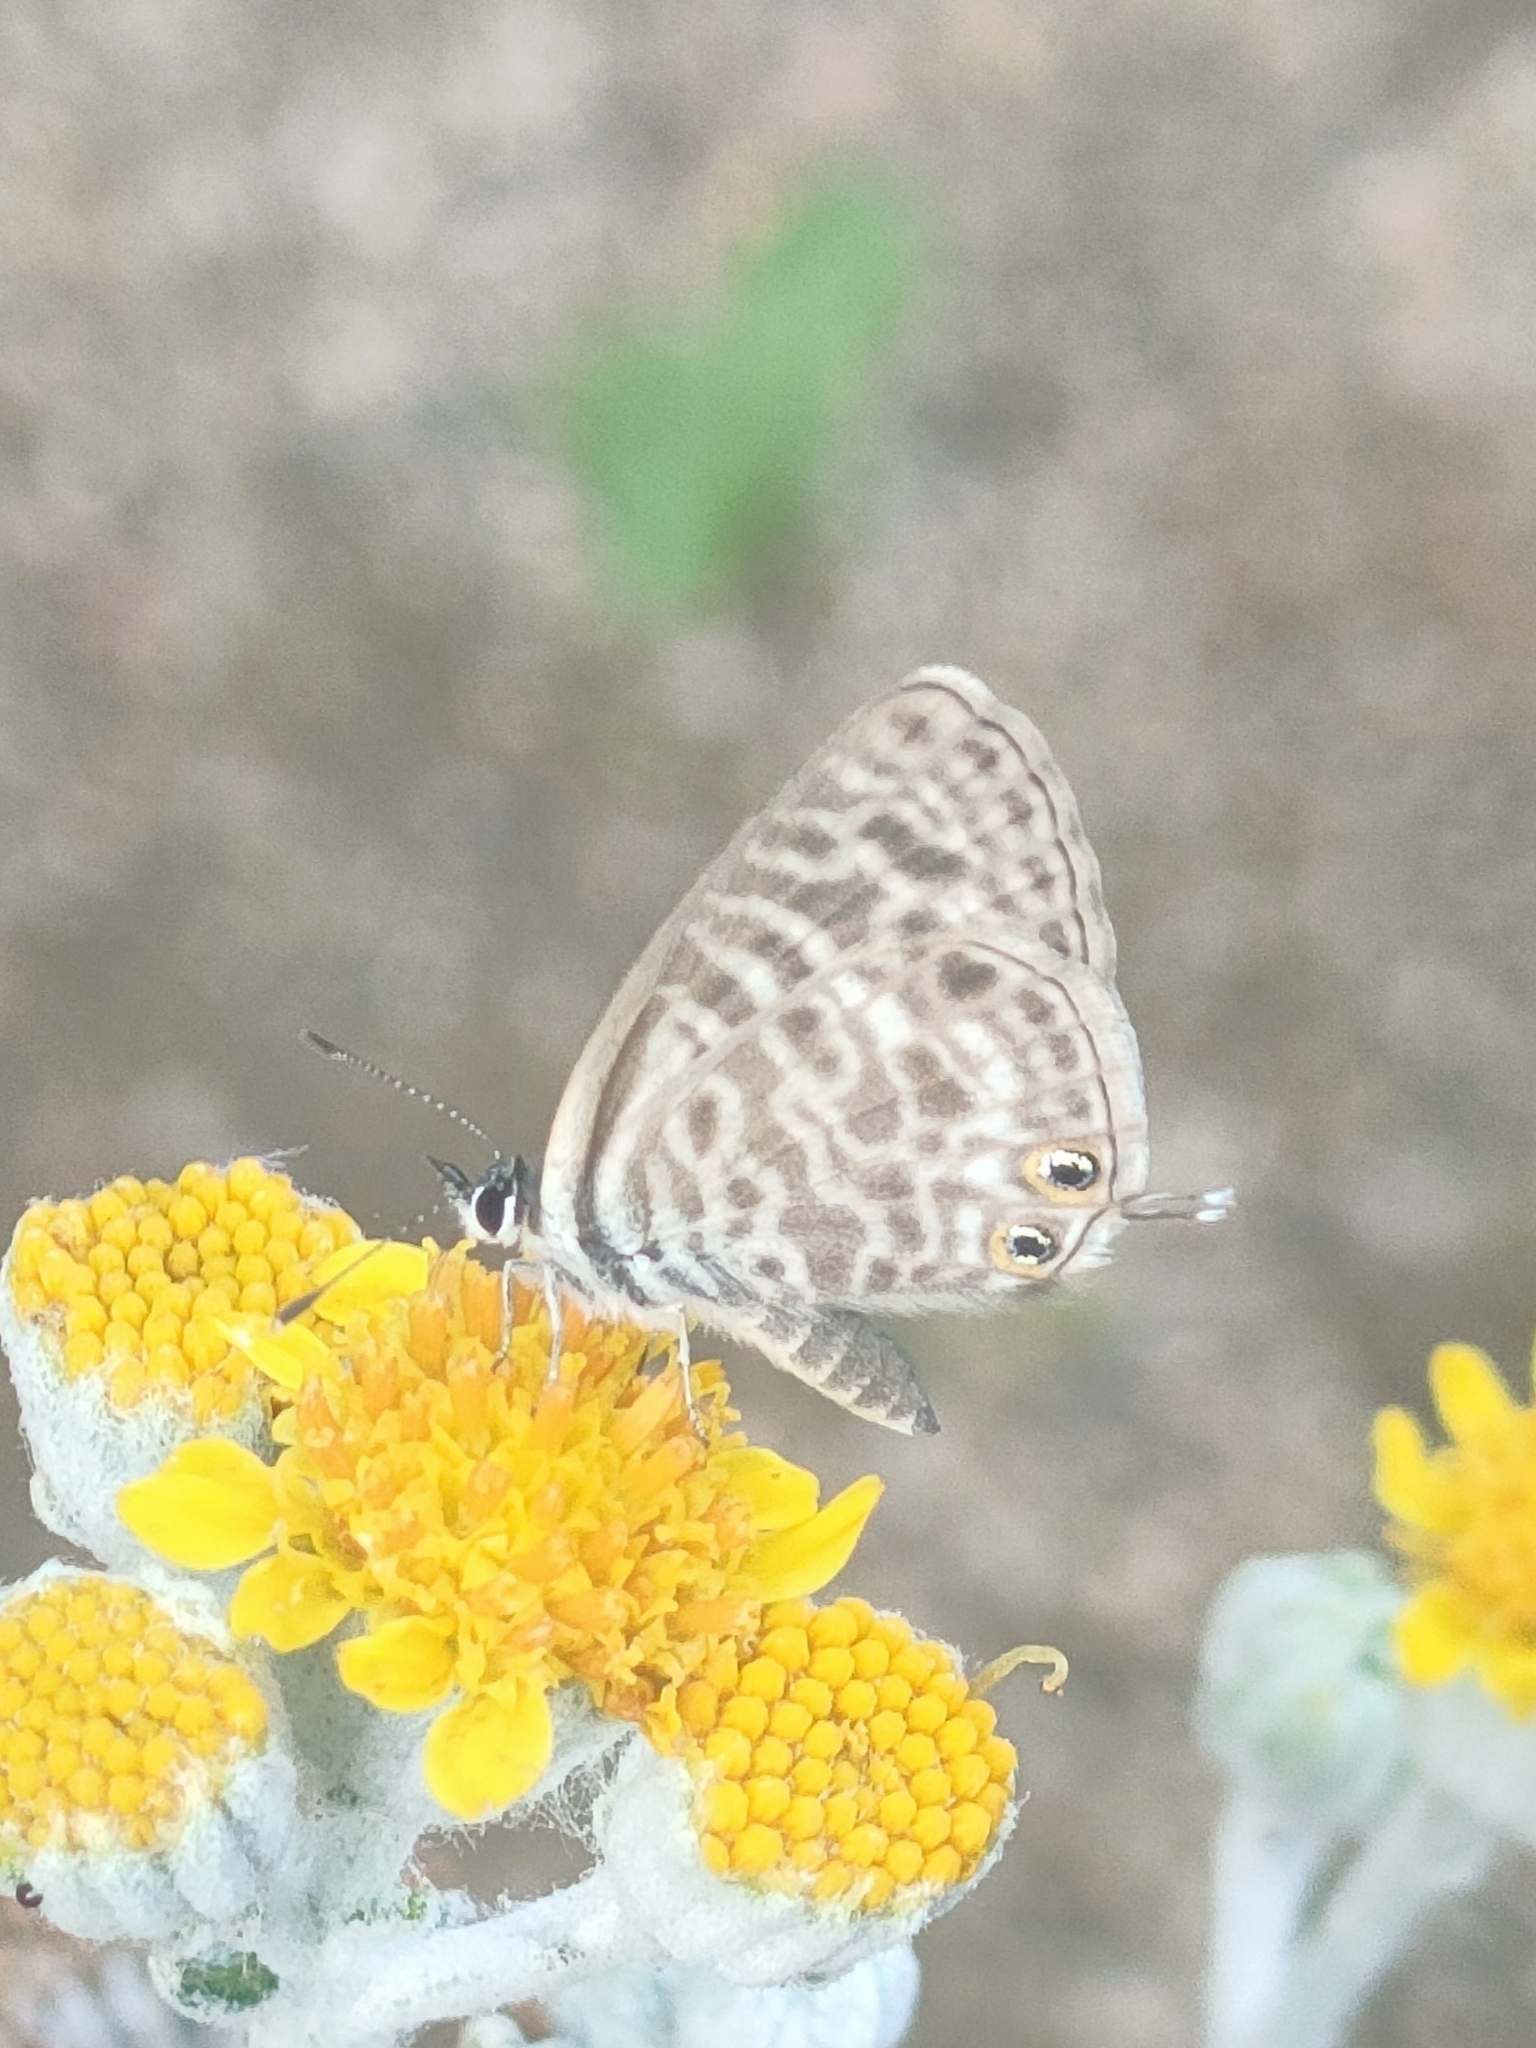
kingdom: Animalia
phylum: Arthropoda
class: Insecta
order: Lepidoptera
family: Lycaenidae
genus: Leptotes
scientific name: Leptotes pirithous
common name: Lang's short-tailed blue
